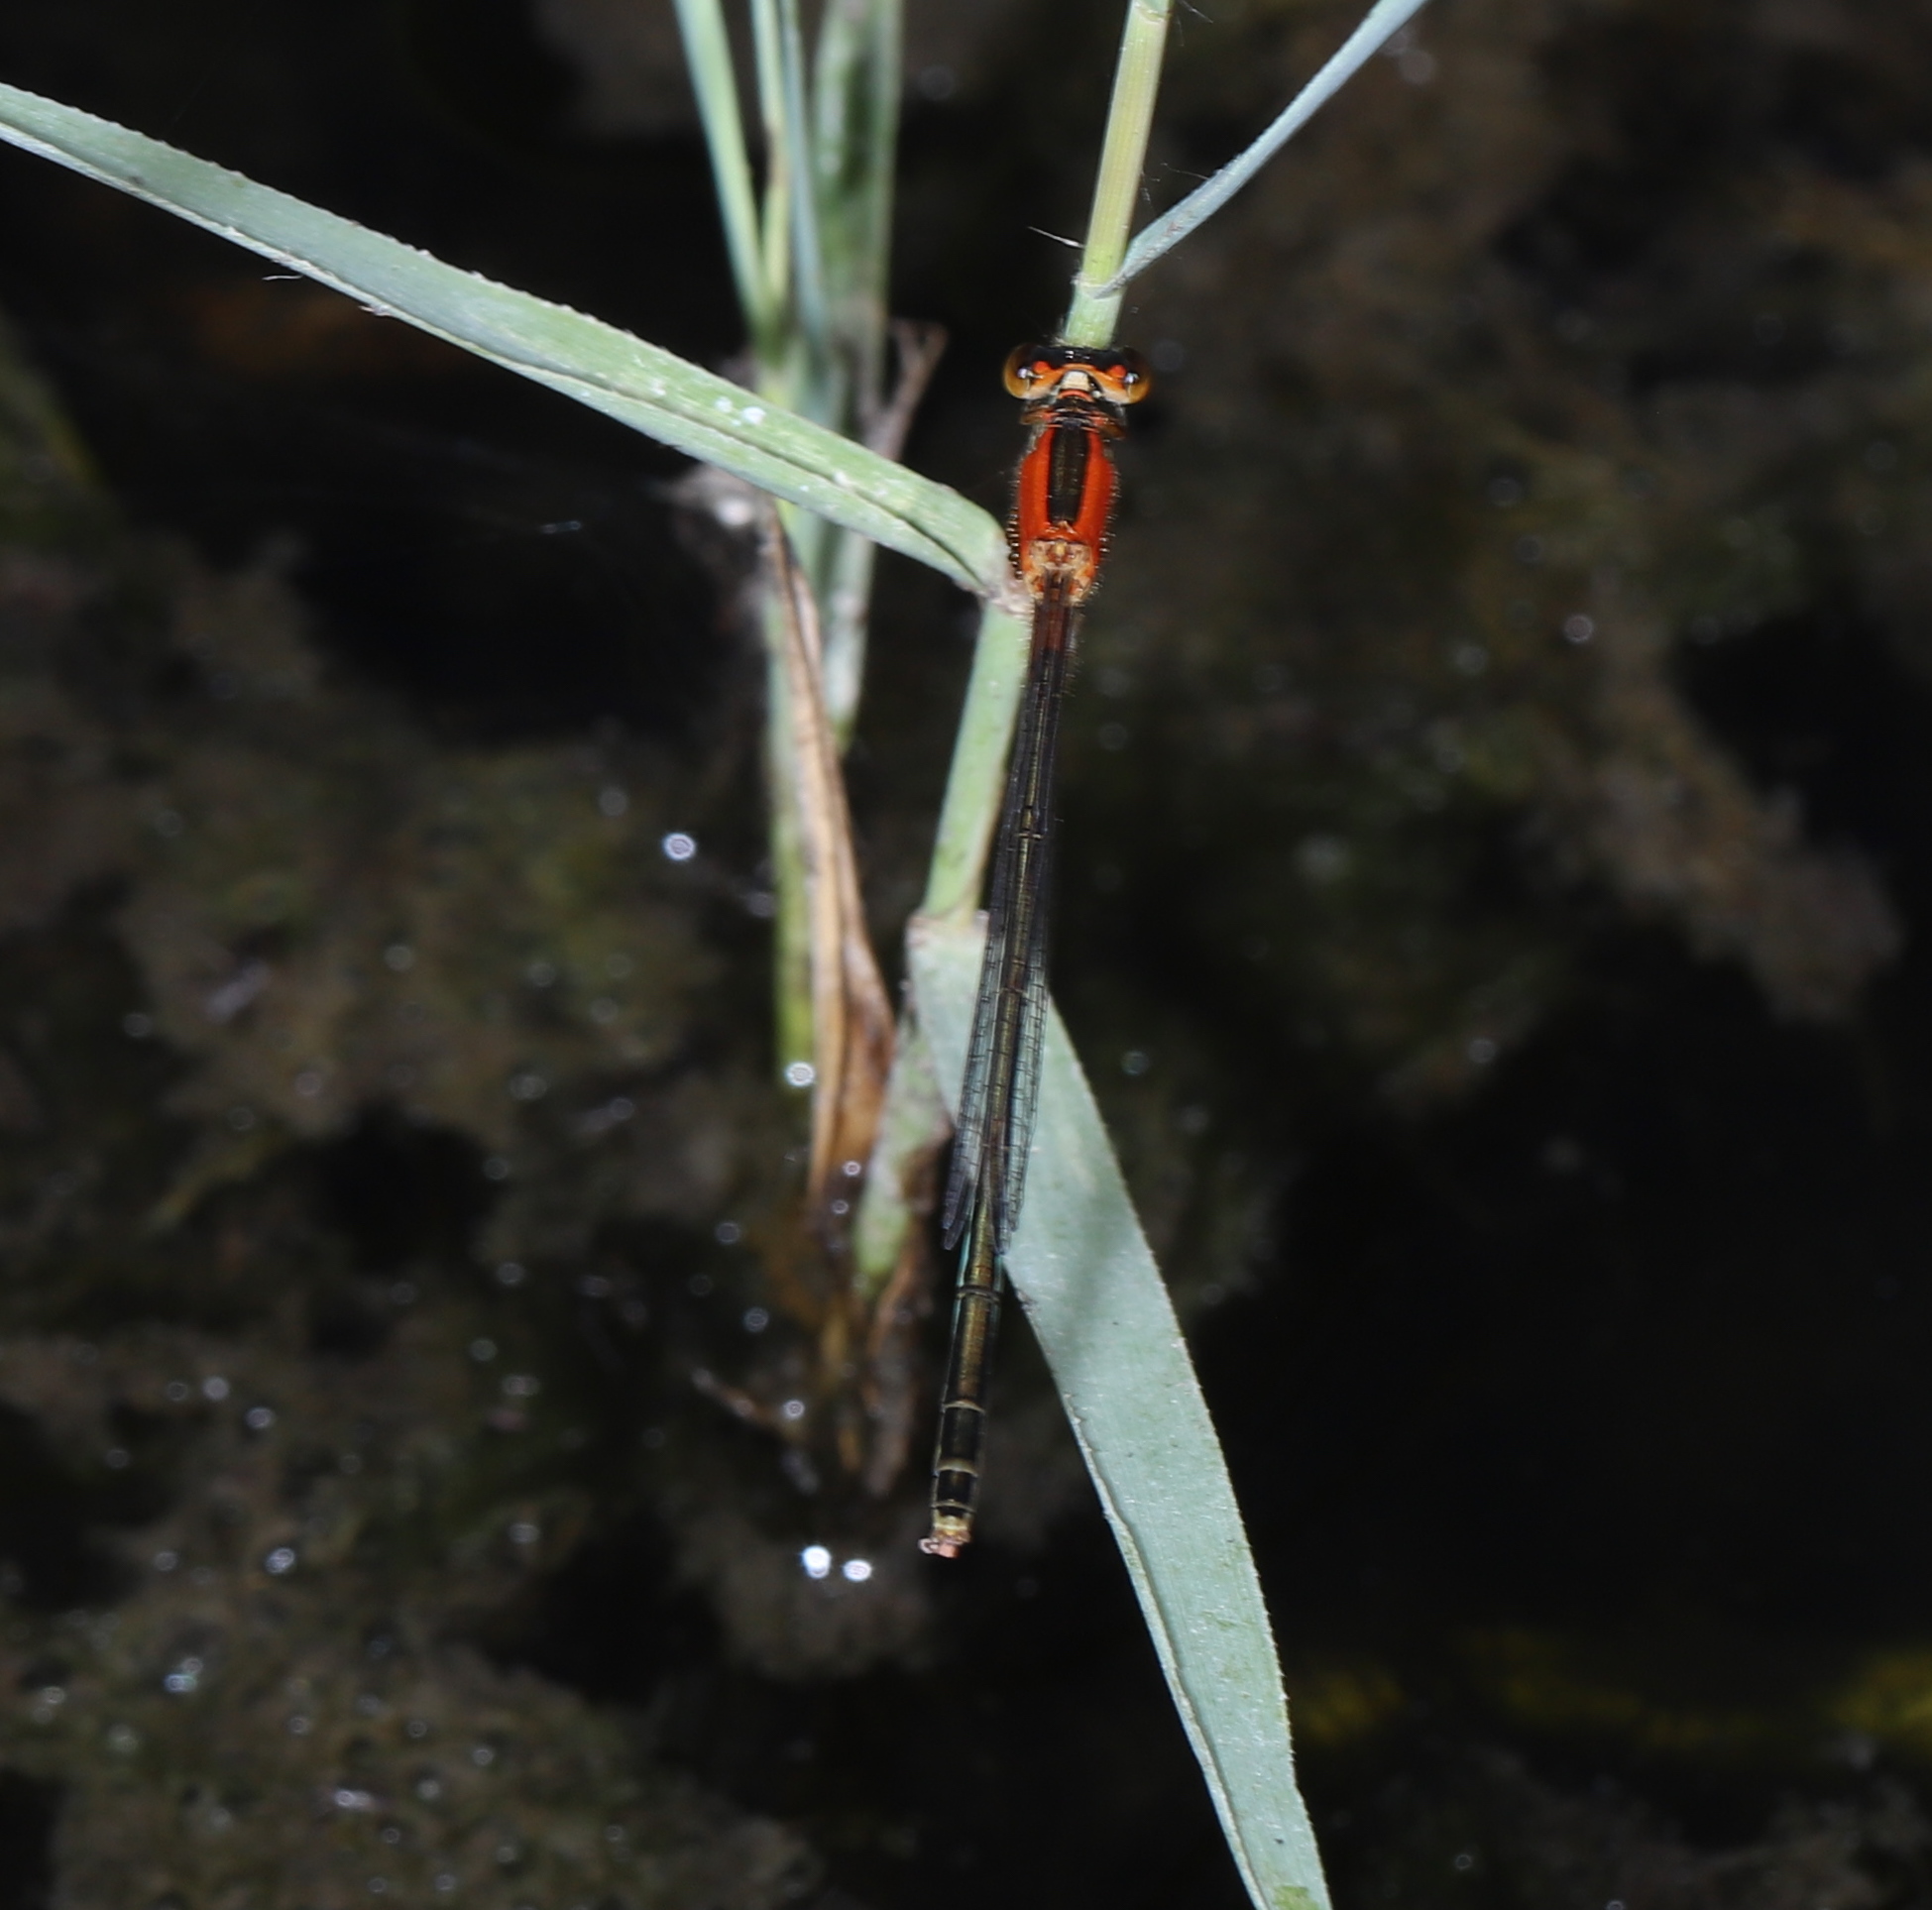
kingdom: Animalia
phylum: Arthropoda
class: Insecta
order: Odonata
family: Coenagrionidae
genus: Ischnura
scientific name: Ischnura ramburii
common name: Rambur's forktail
